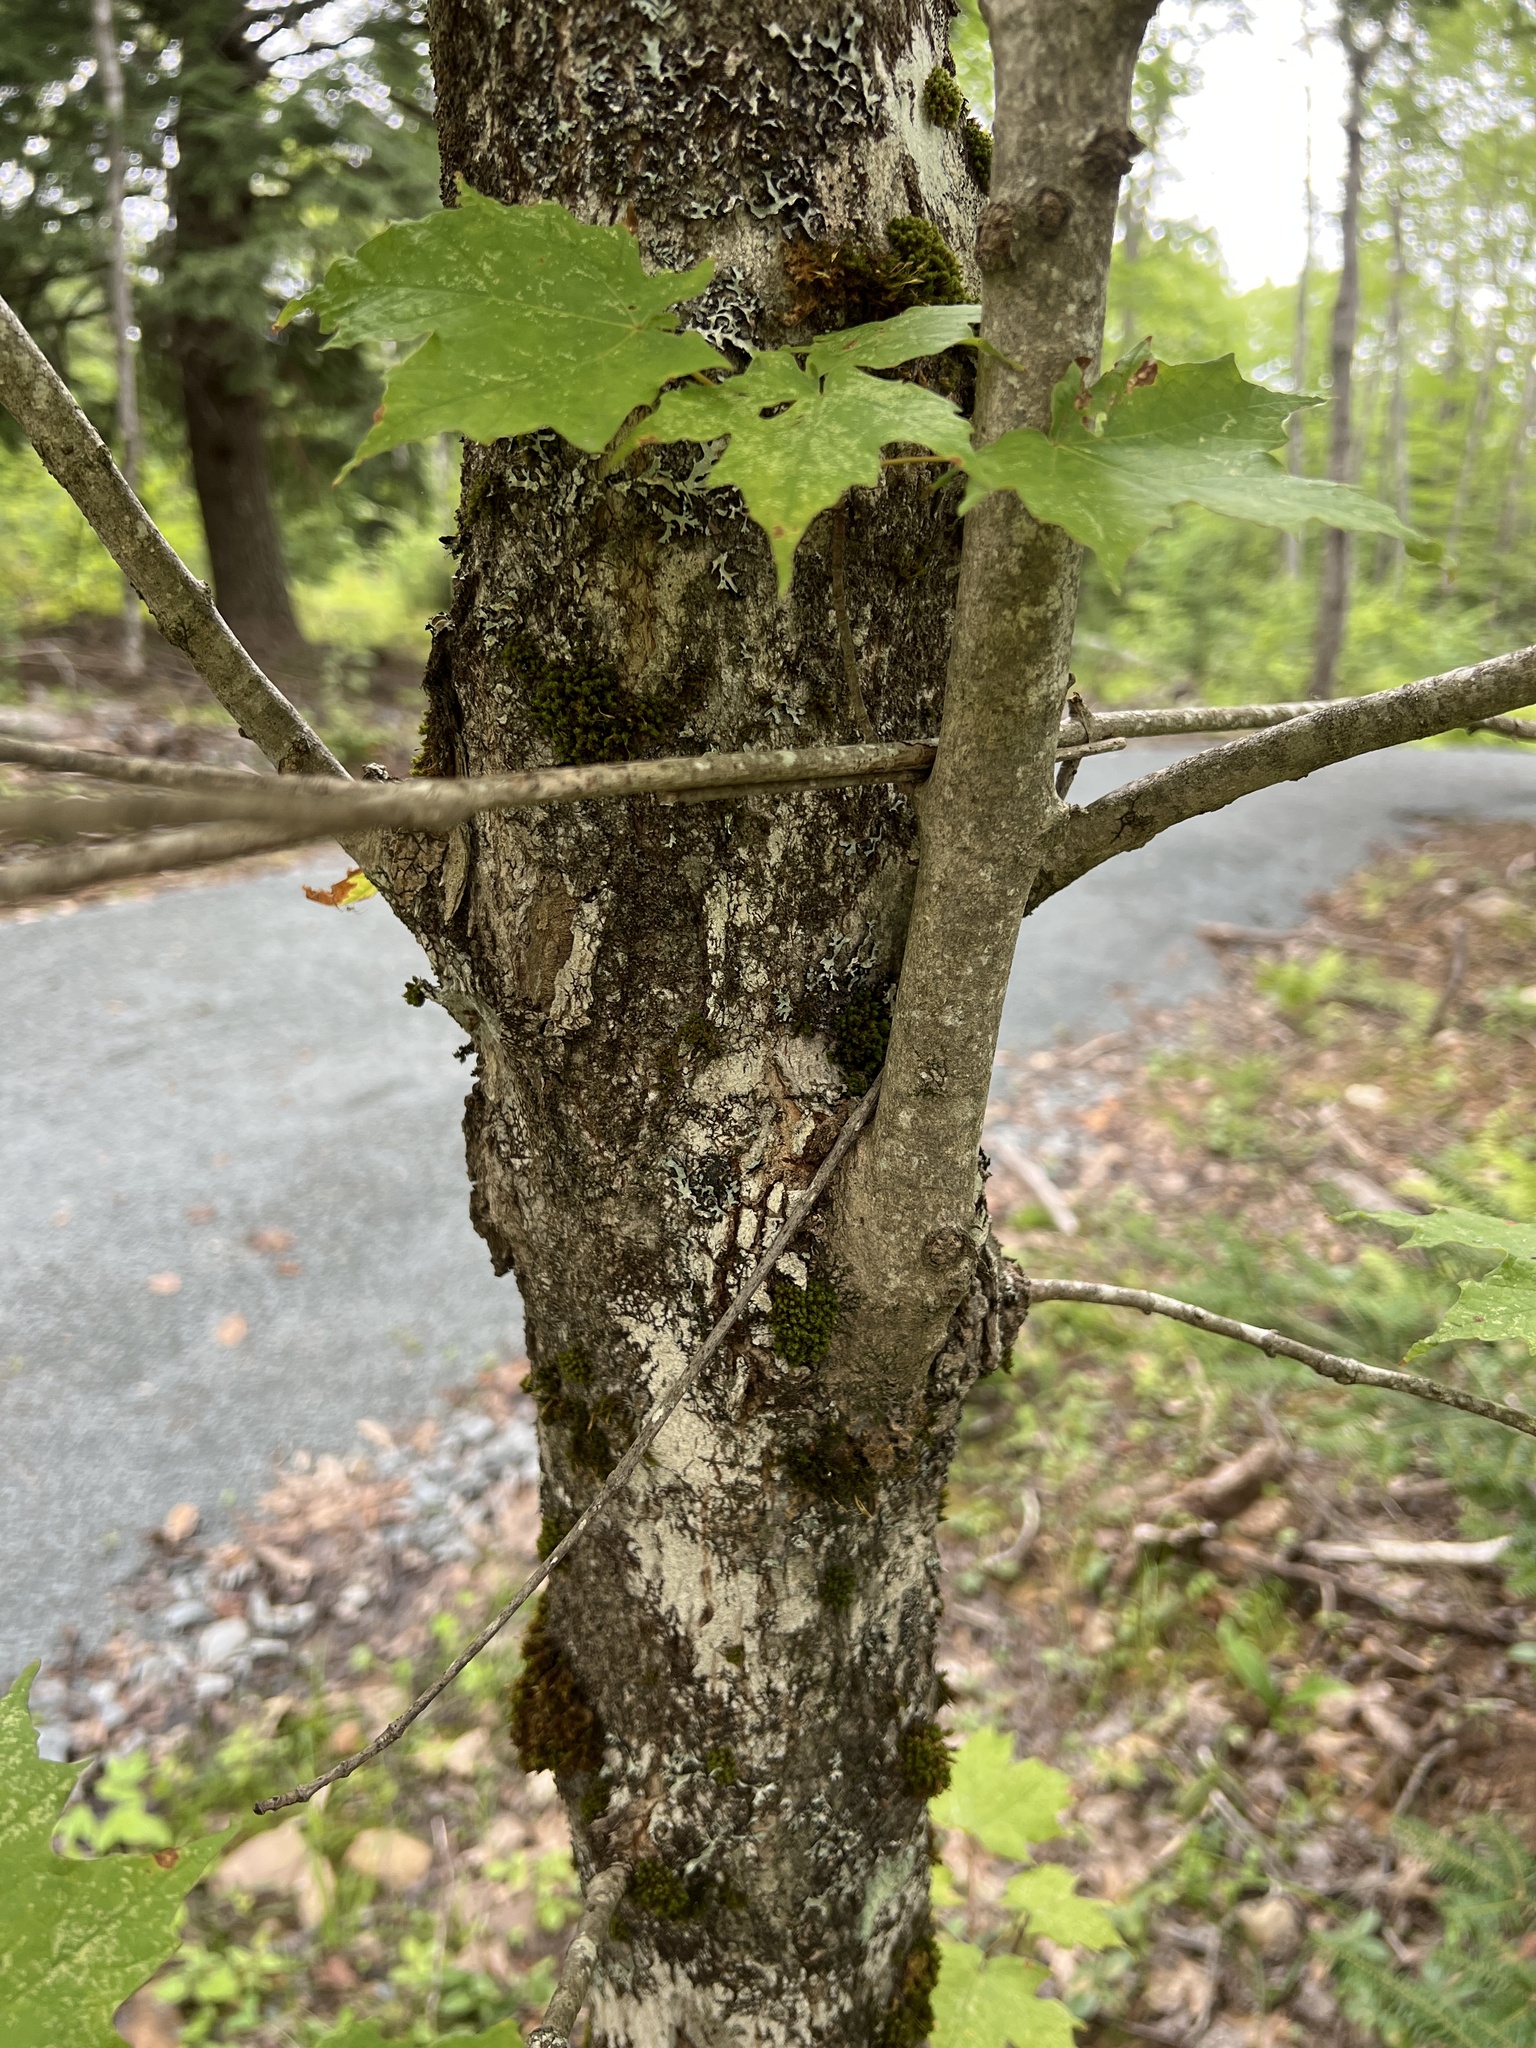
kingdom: Plantae
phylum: Tracheophyta
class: Magnoliopsida
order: Sapindales
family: Sapindaceae
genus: Acer
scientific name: Acer saccharum
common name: Sugar maple
